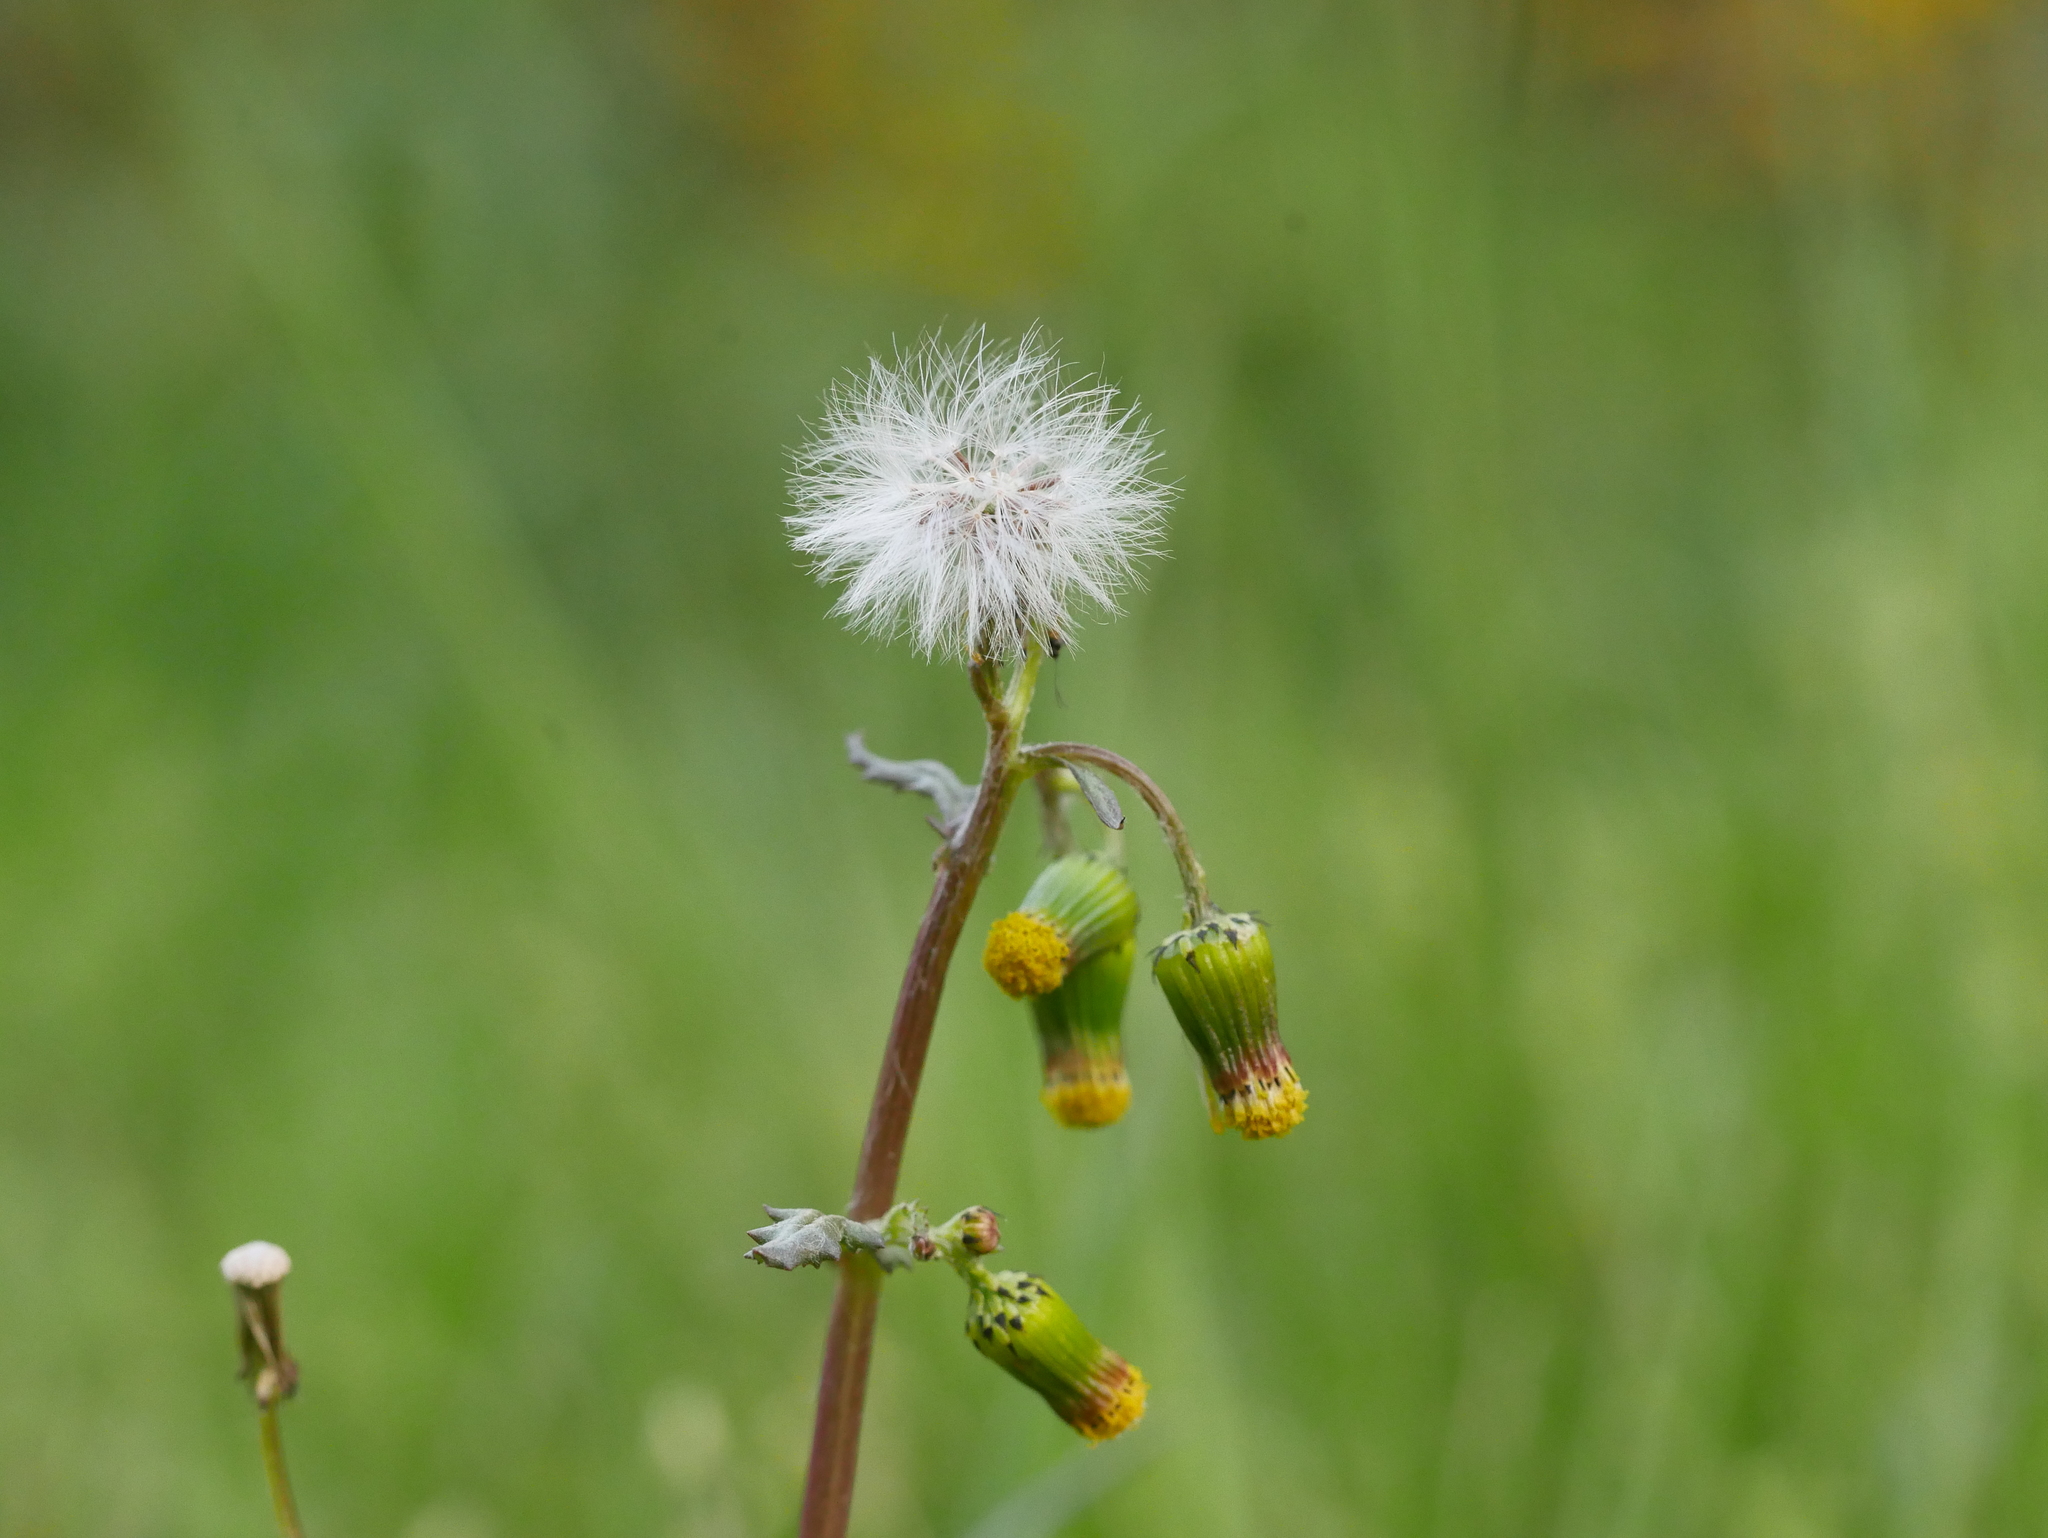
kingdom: Plantae
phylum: Tracheophyta
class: Magnoliopsida
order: Asterales
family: Asteraceae
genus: Senecio
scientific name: Senecio vulgaris
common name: Old-man-in-the-spring
